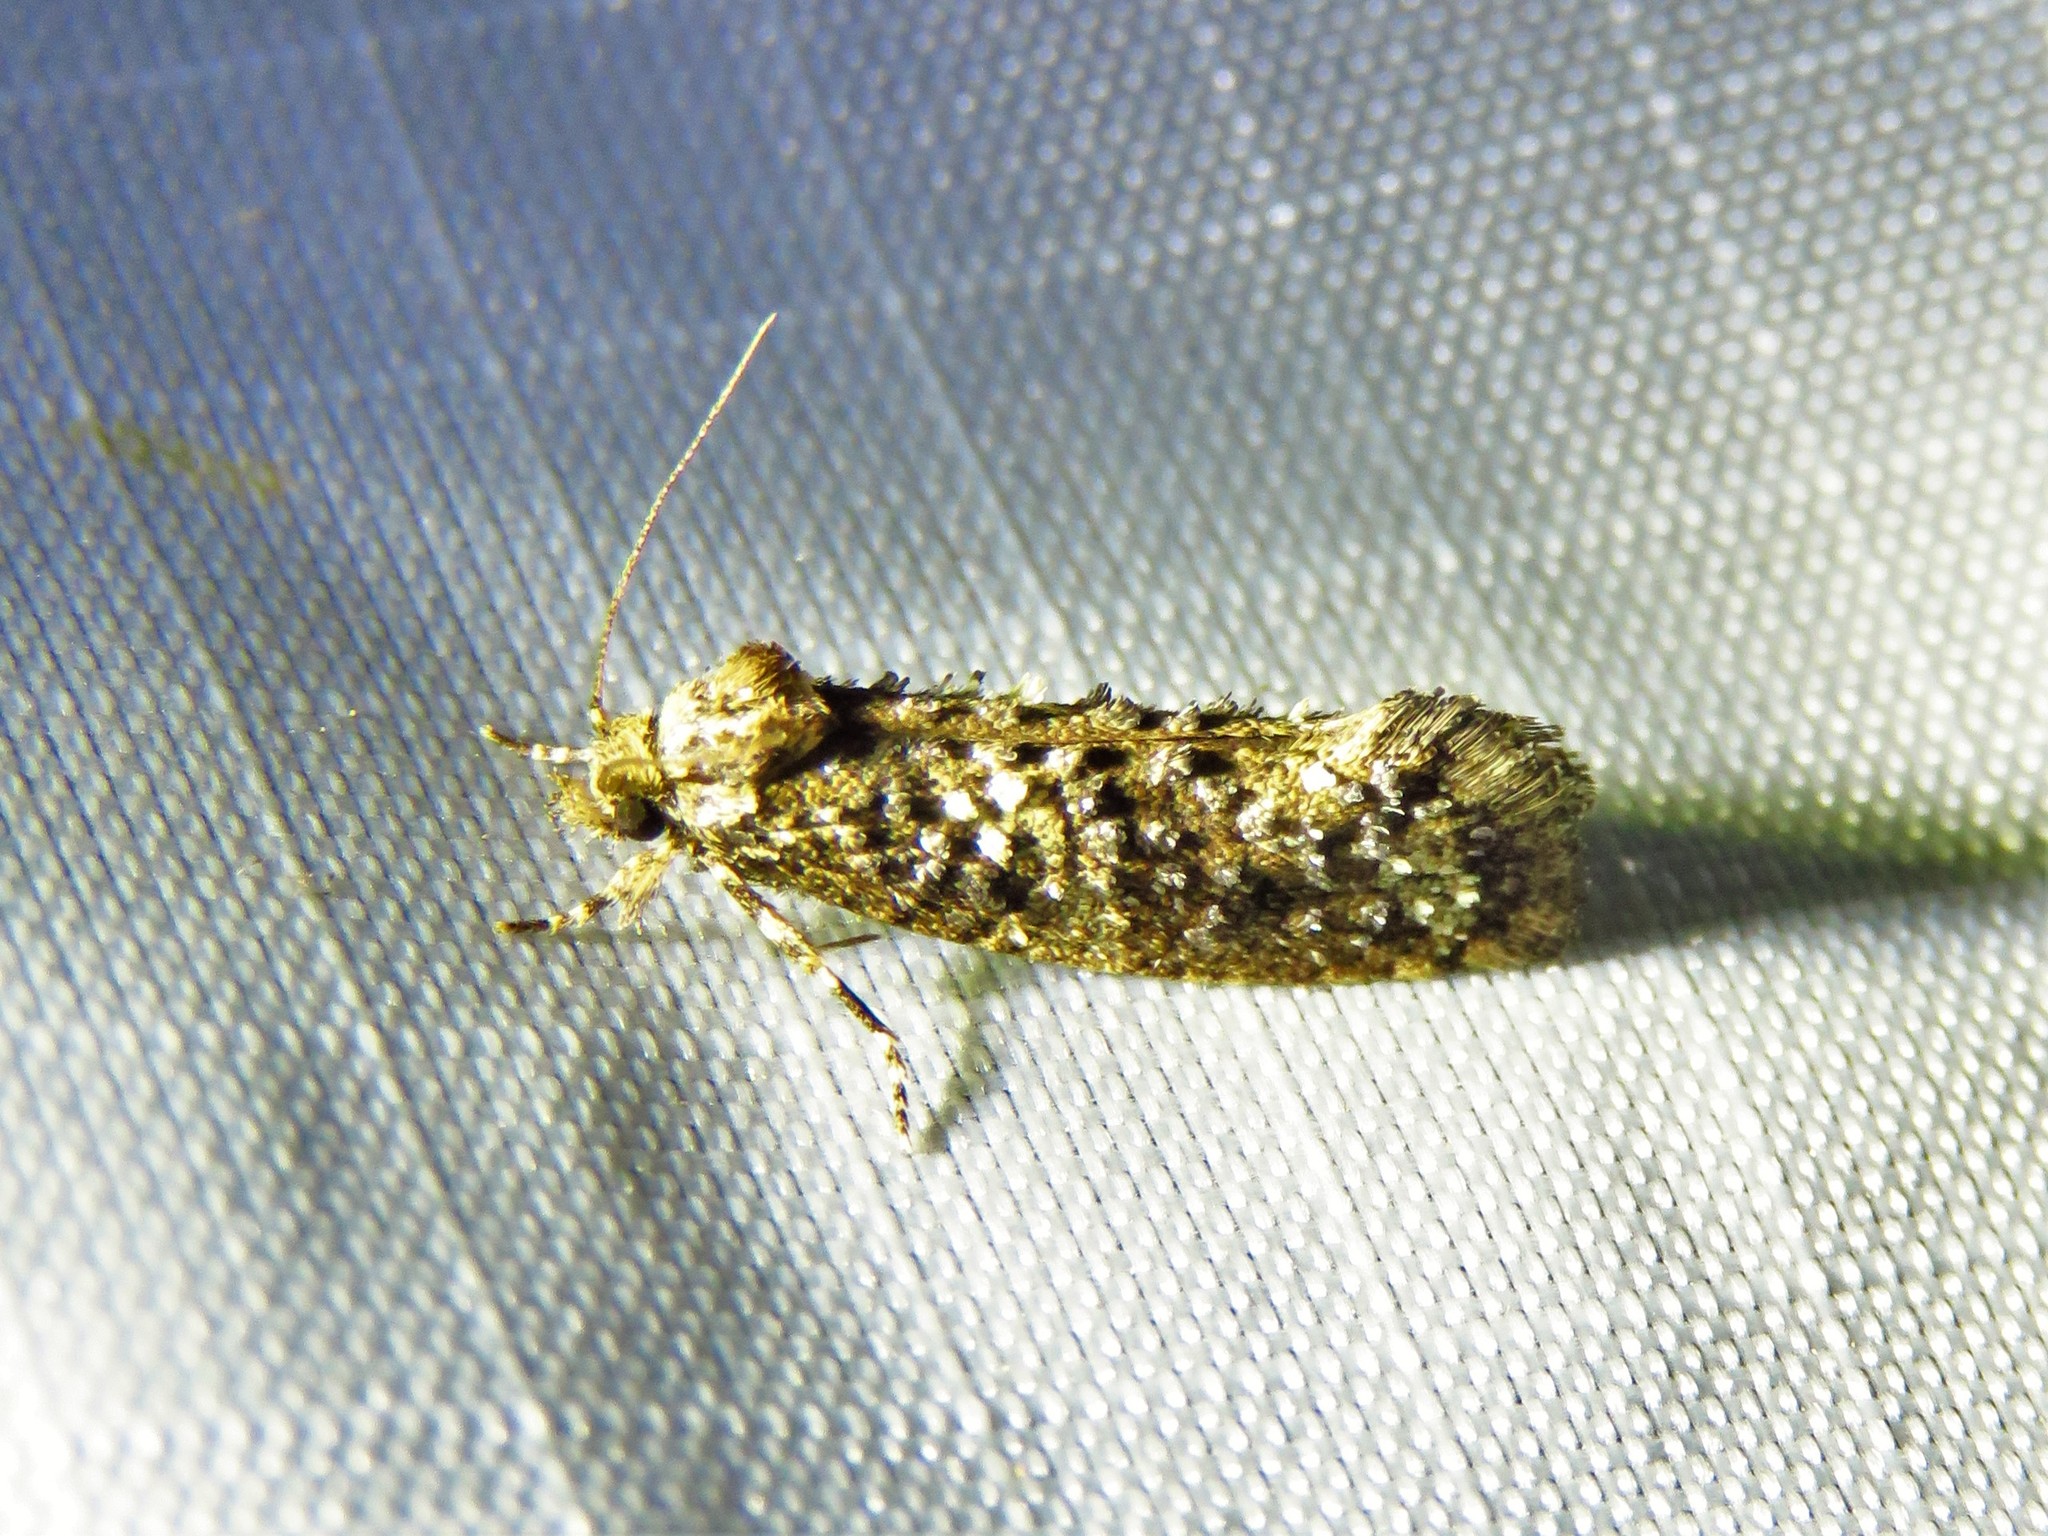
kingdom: Animalia
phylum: Arthropoda
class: Insecta
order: Lepidoptera
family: Tineidae
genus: Acrolophus
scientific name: Acrolophus cressoni
